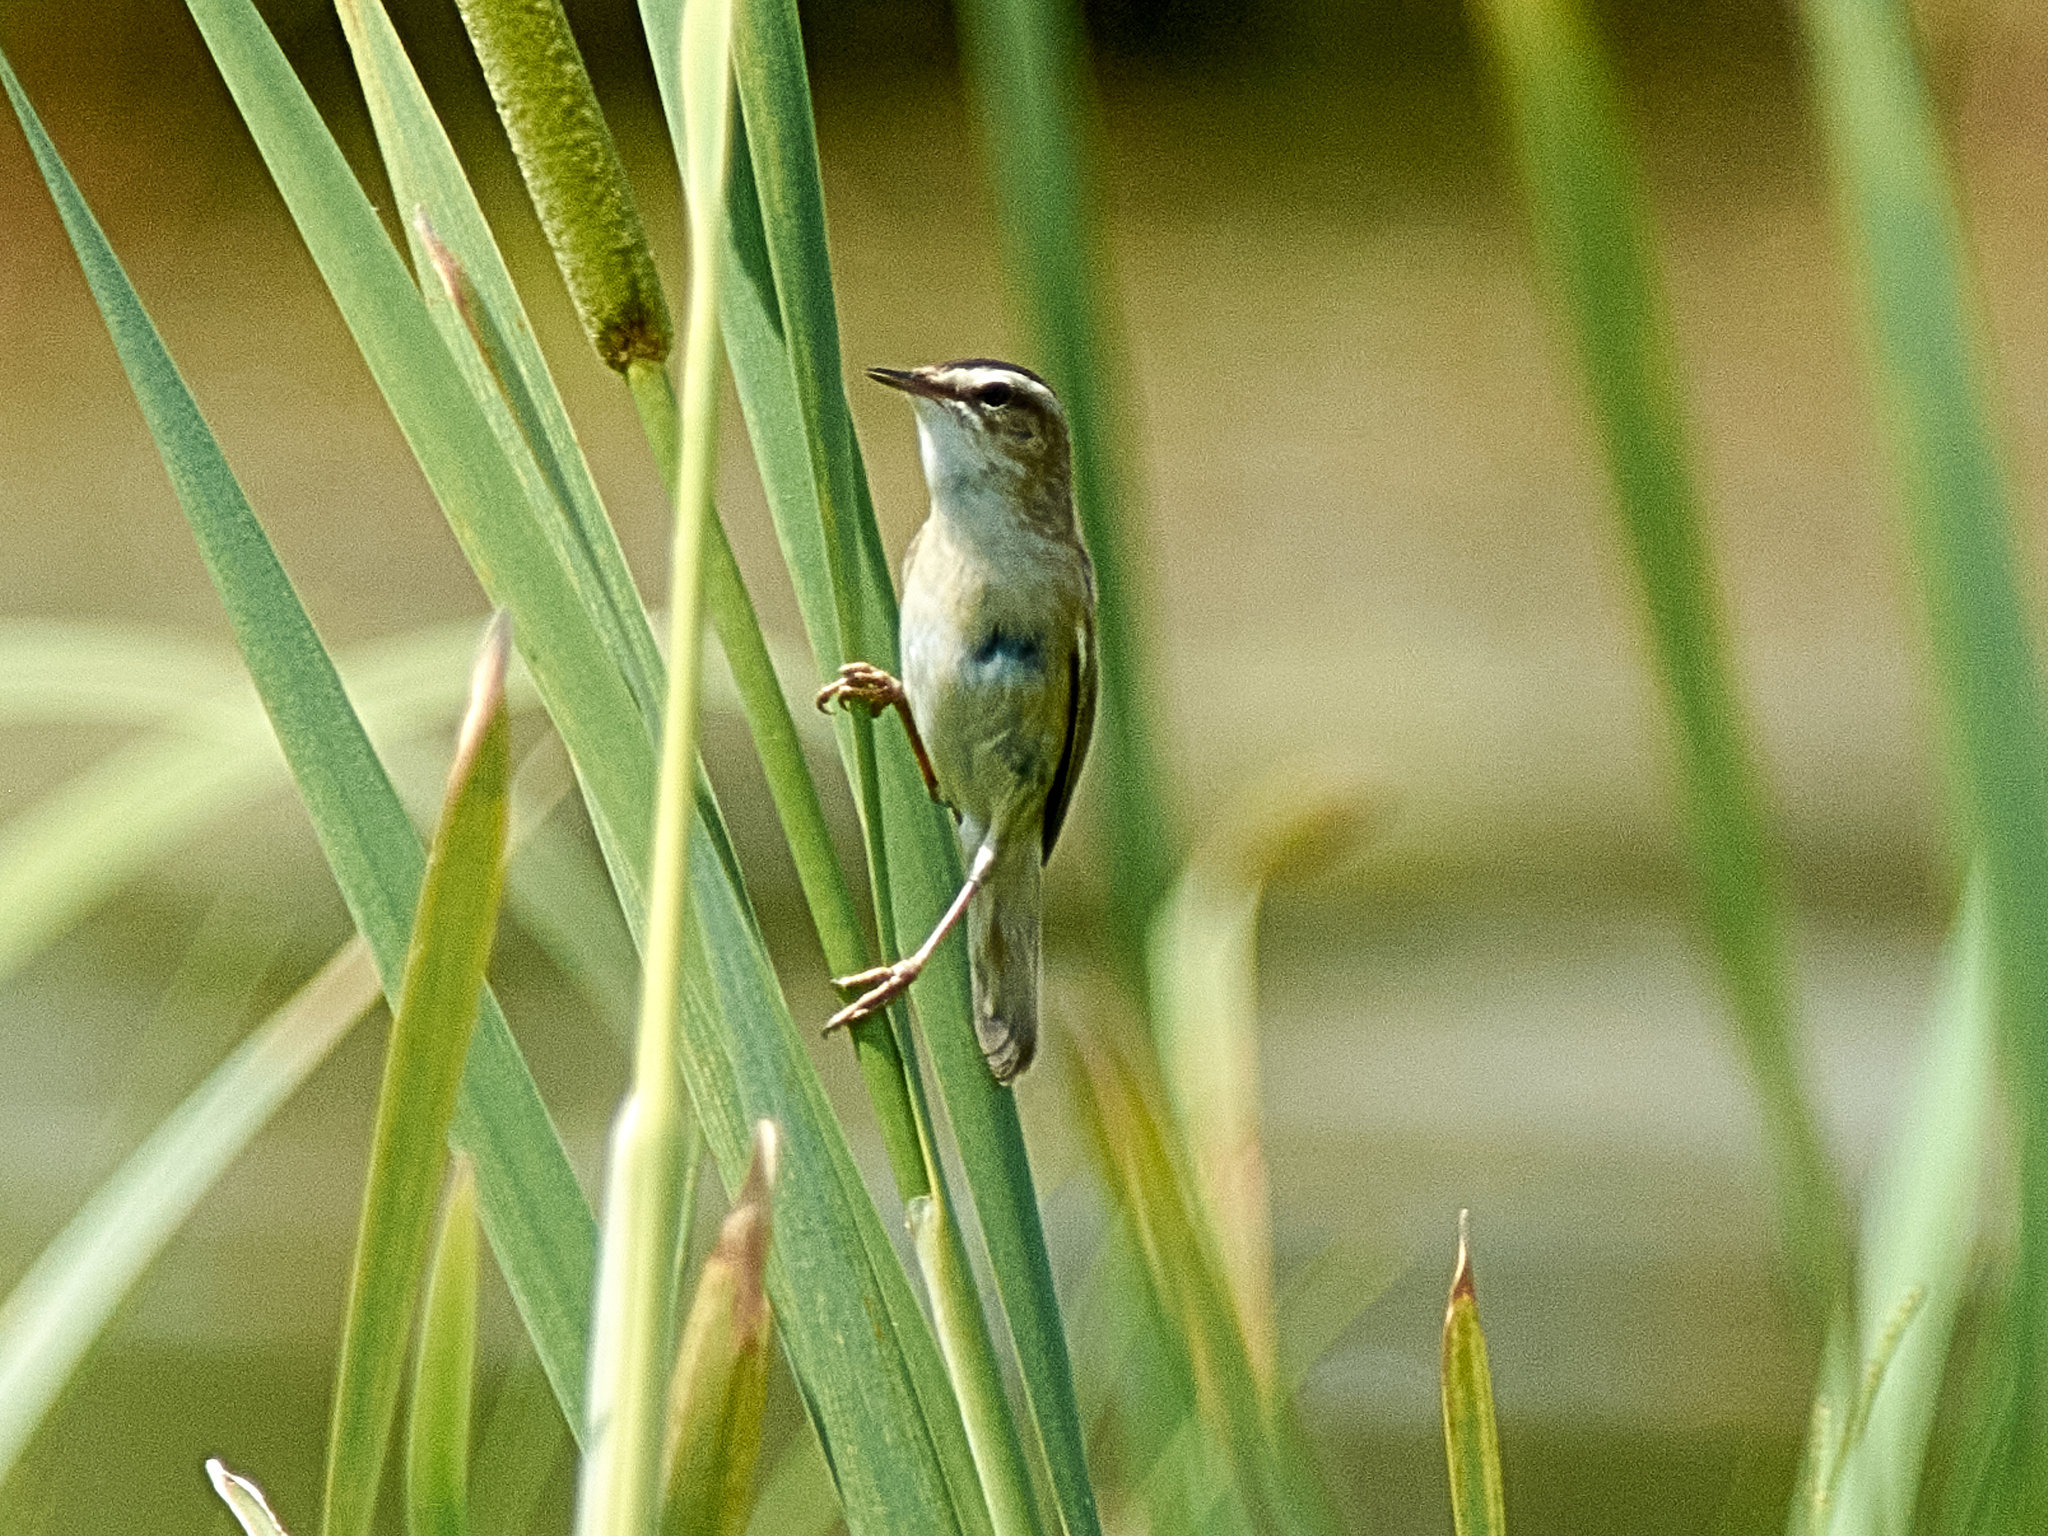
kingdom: Animalia
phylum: Chordata
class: Aves
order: Passeriformes
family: Acrocephalidae
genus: Acrocephalus
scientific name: Acrocephalus schoenobaenus
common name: Sedge warbler
